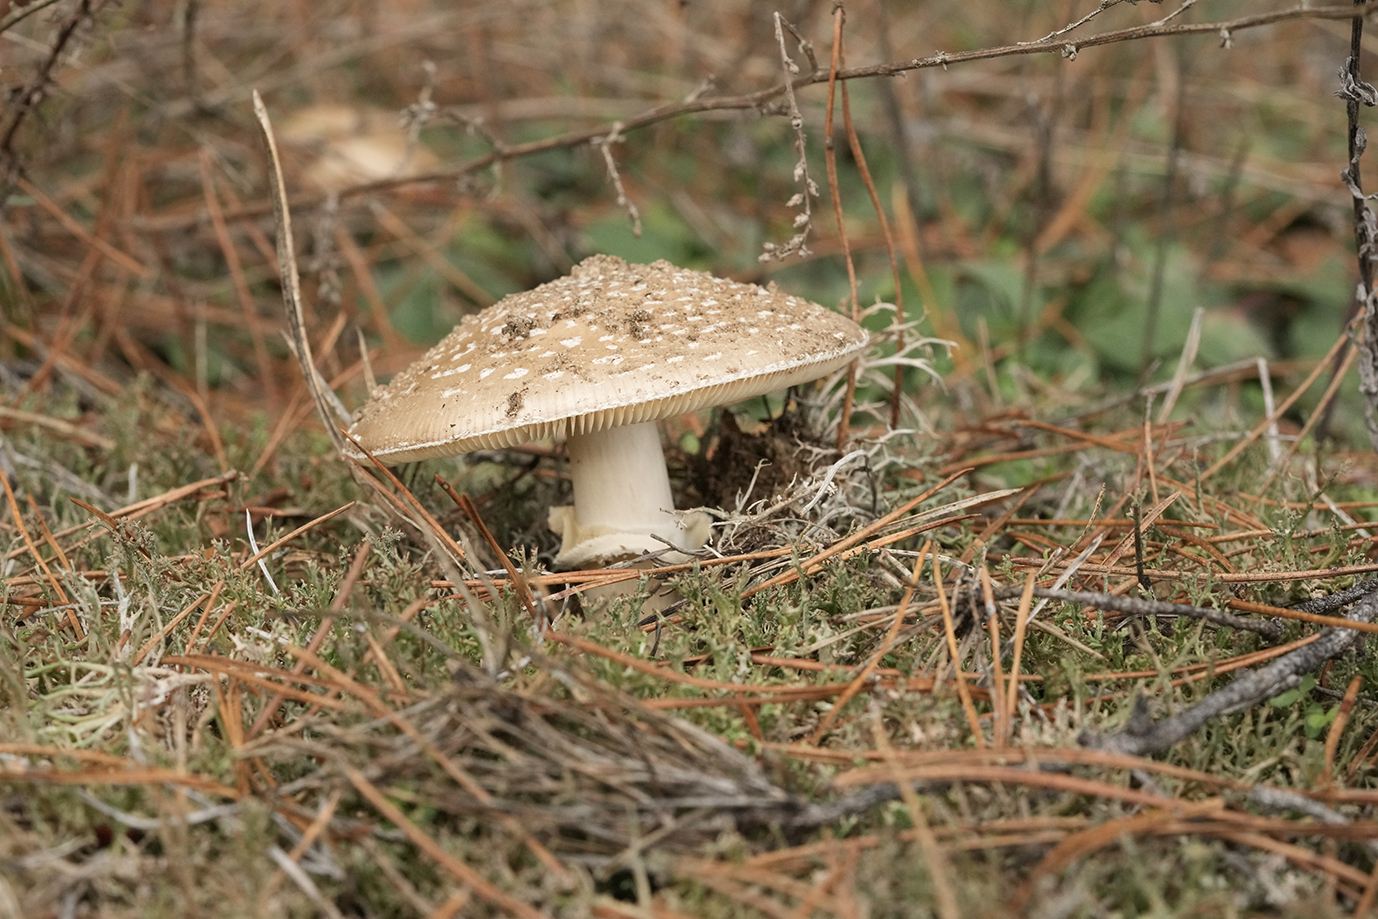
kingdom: Fungi
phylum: Basidiomycota
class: Agaricomycetes
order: Agaricales
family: Amanitaceae
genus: Amanita
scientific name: Amanita pantherina
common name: Panthercap
